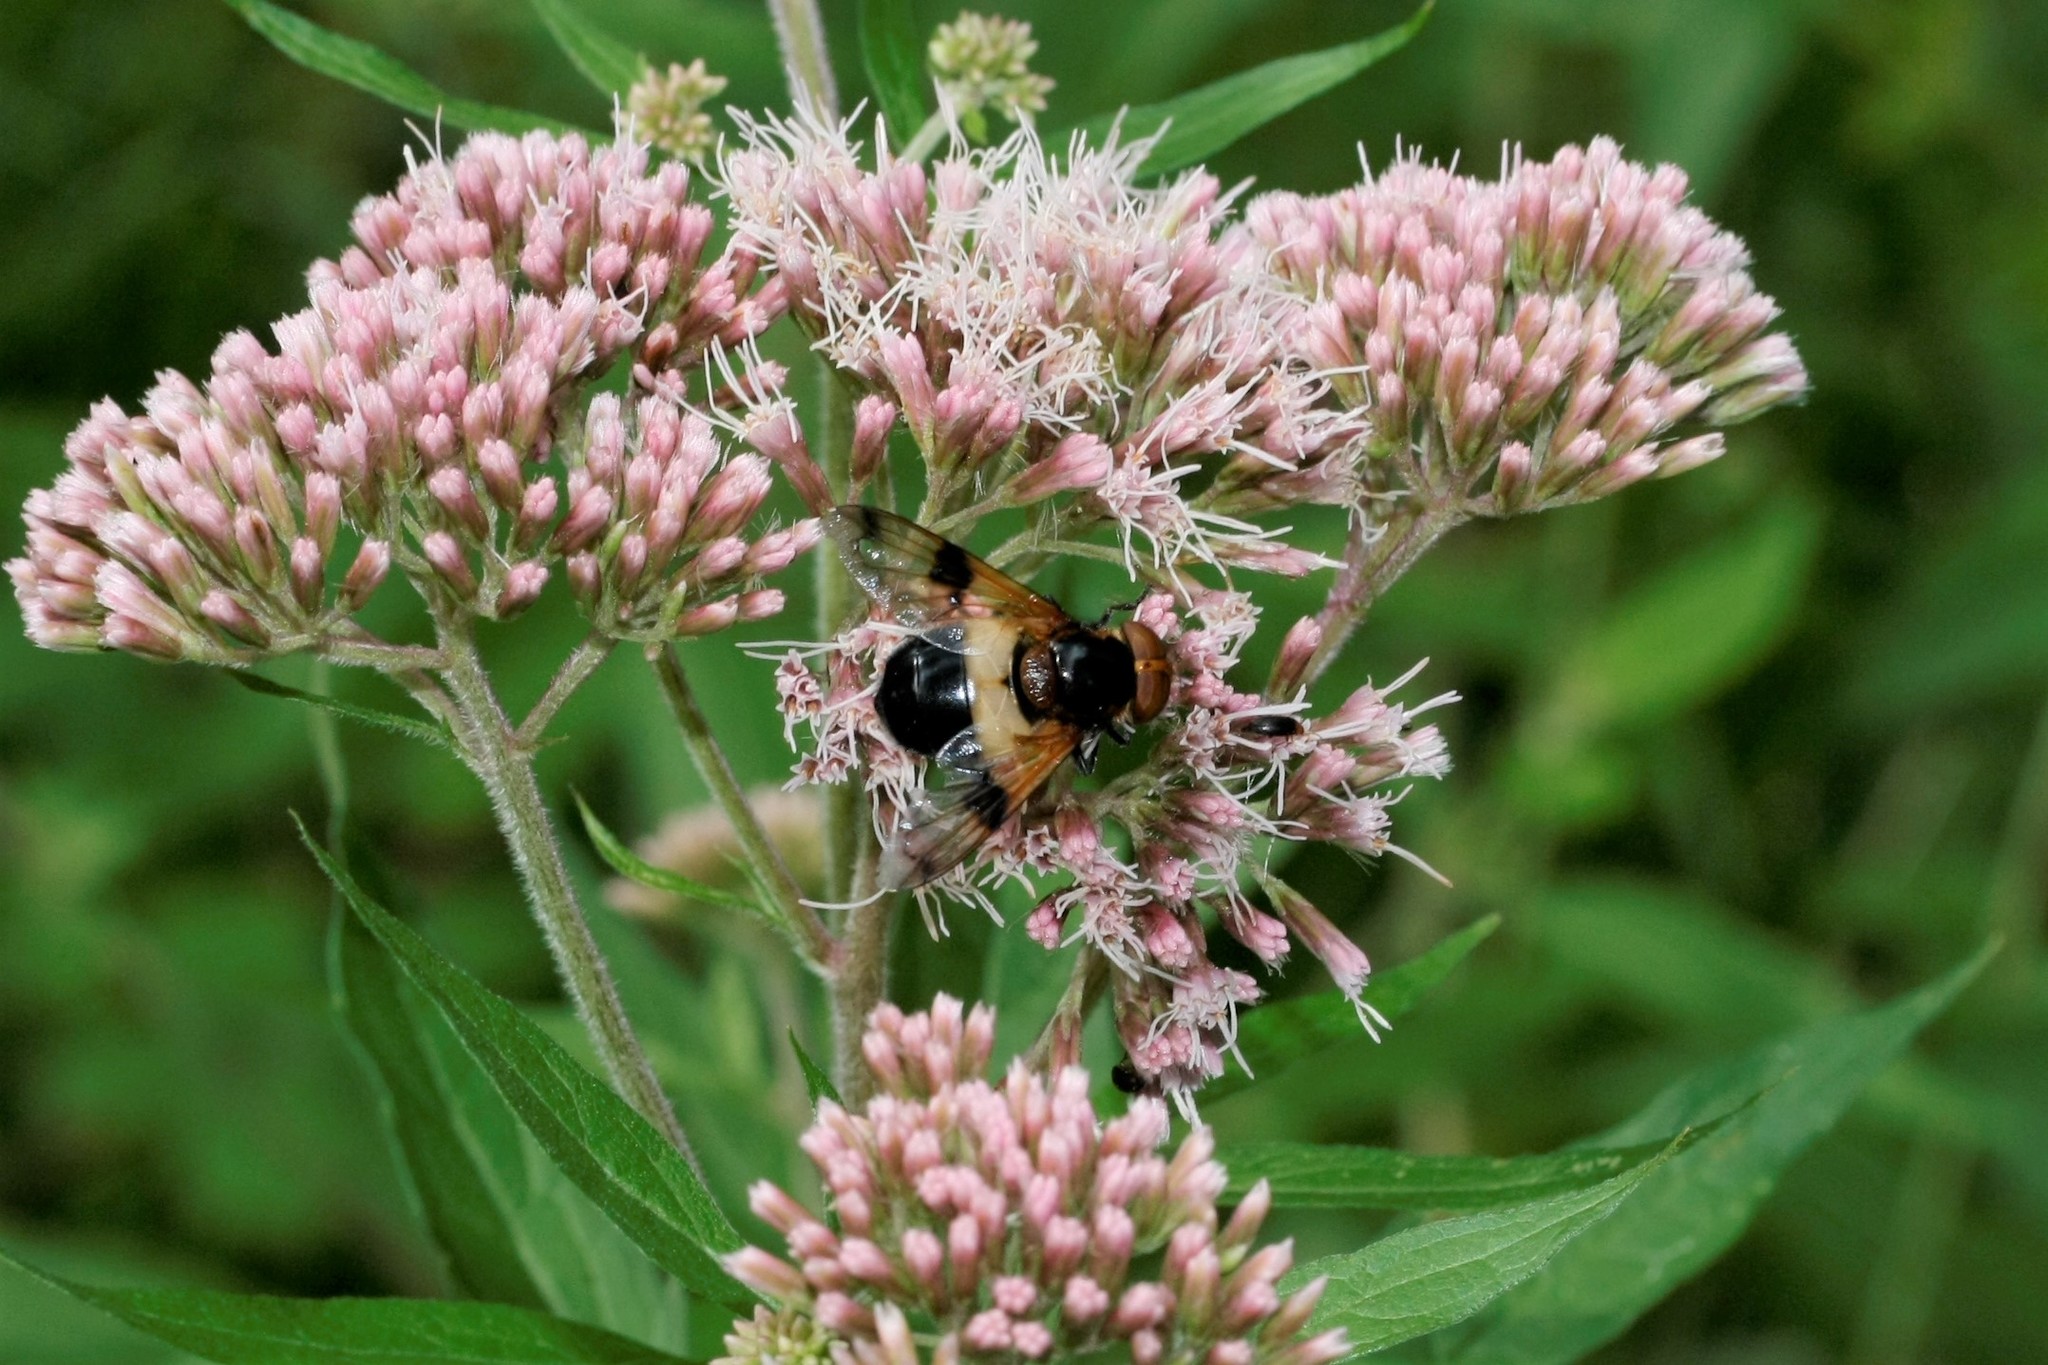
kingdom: Animalia
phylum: Arthropoda
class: Insecta
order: Diptera
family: Syrphidae
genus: Volucella
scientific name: Volucella pellucens
